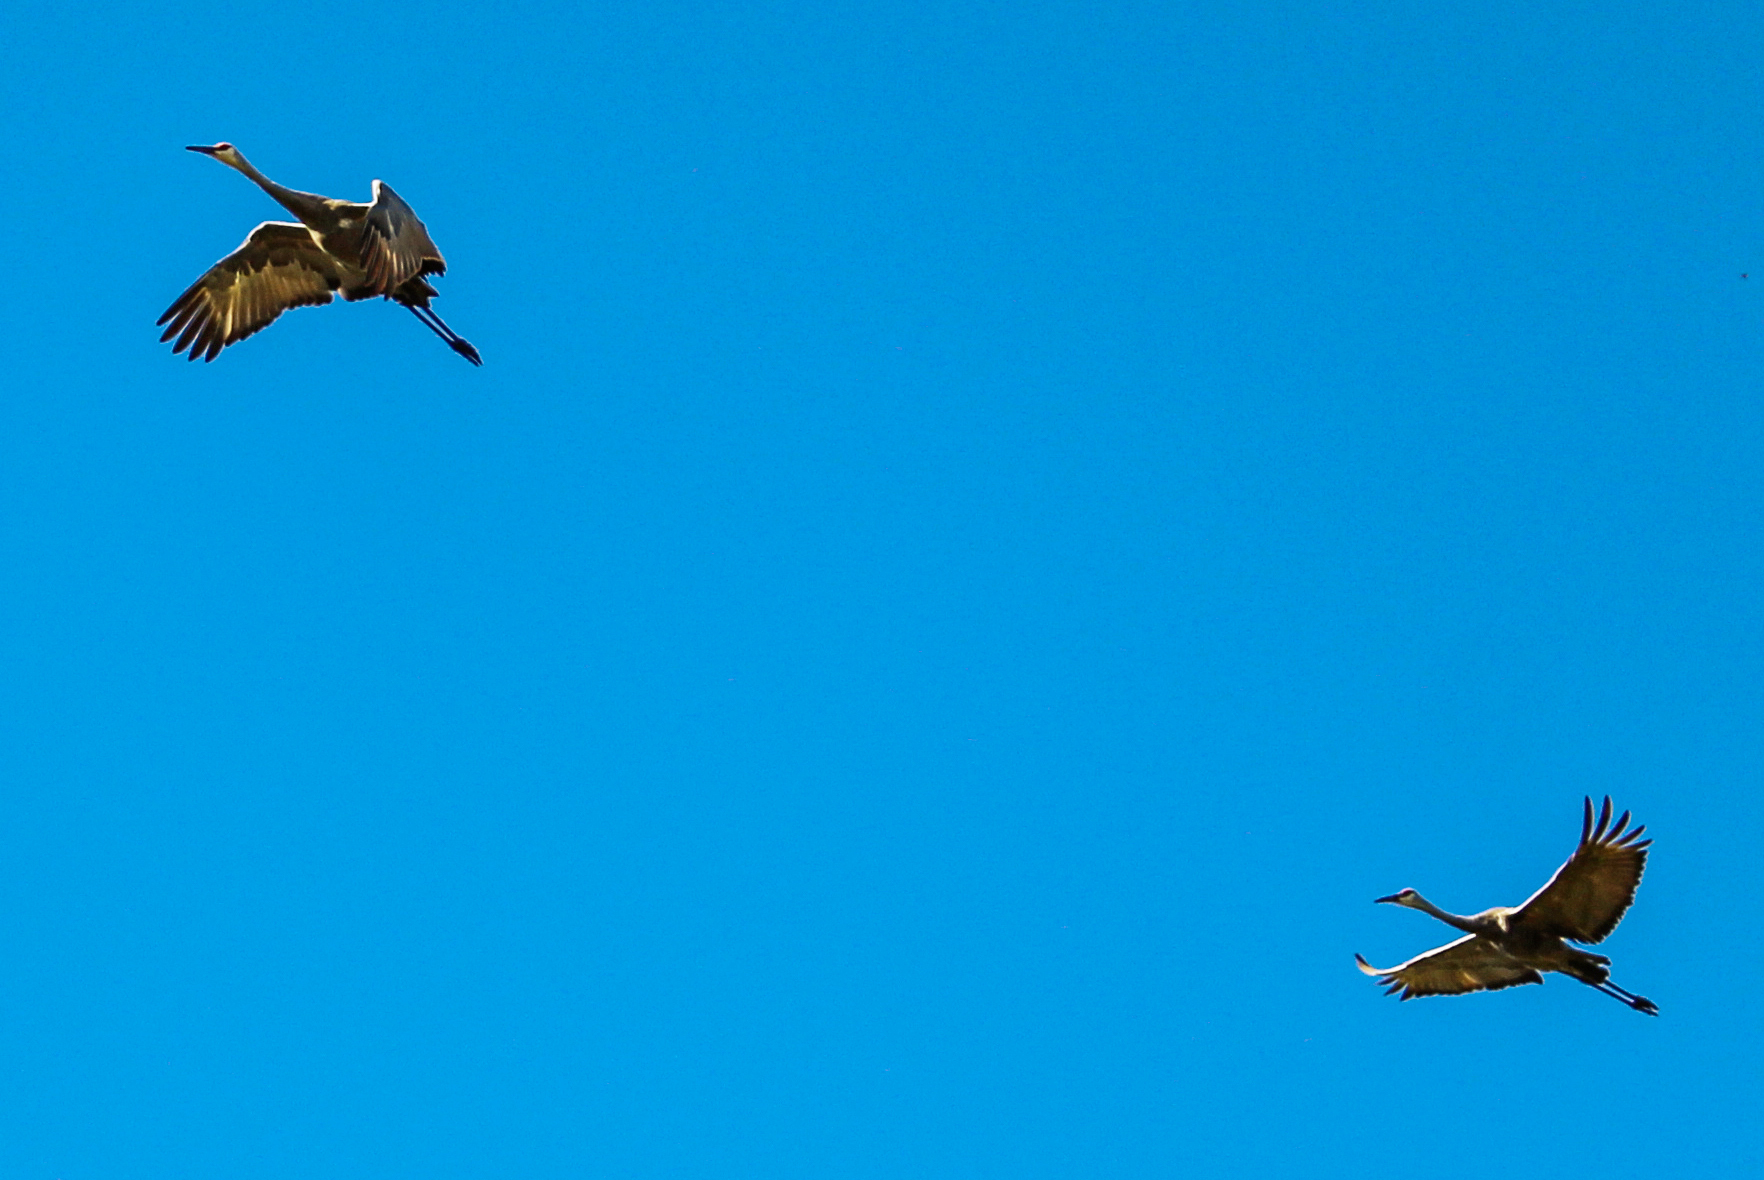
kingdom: Animalia
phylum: Chordata
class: Aves
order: Gruiformes
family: Gruidae
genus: Grus
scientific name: Grus canadensis
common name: Sandhill crane
